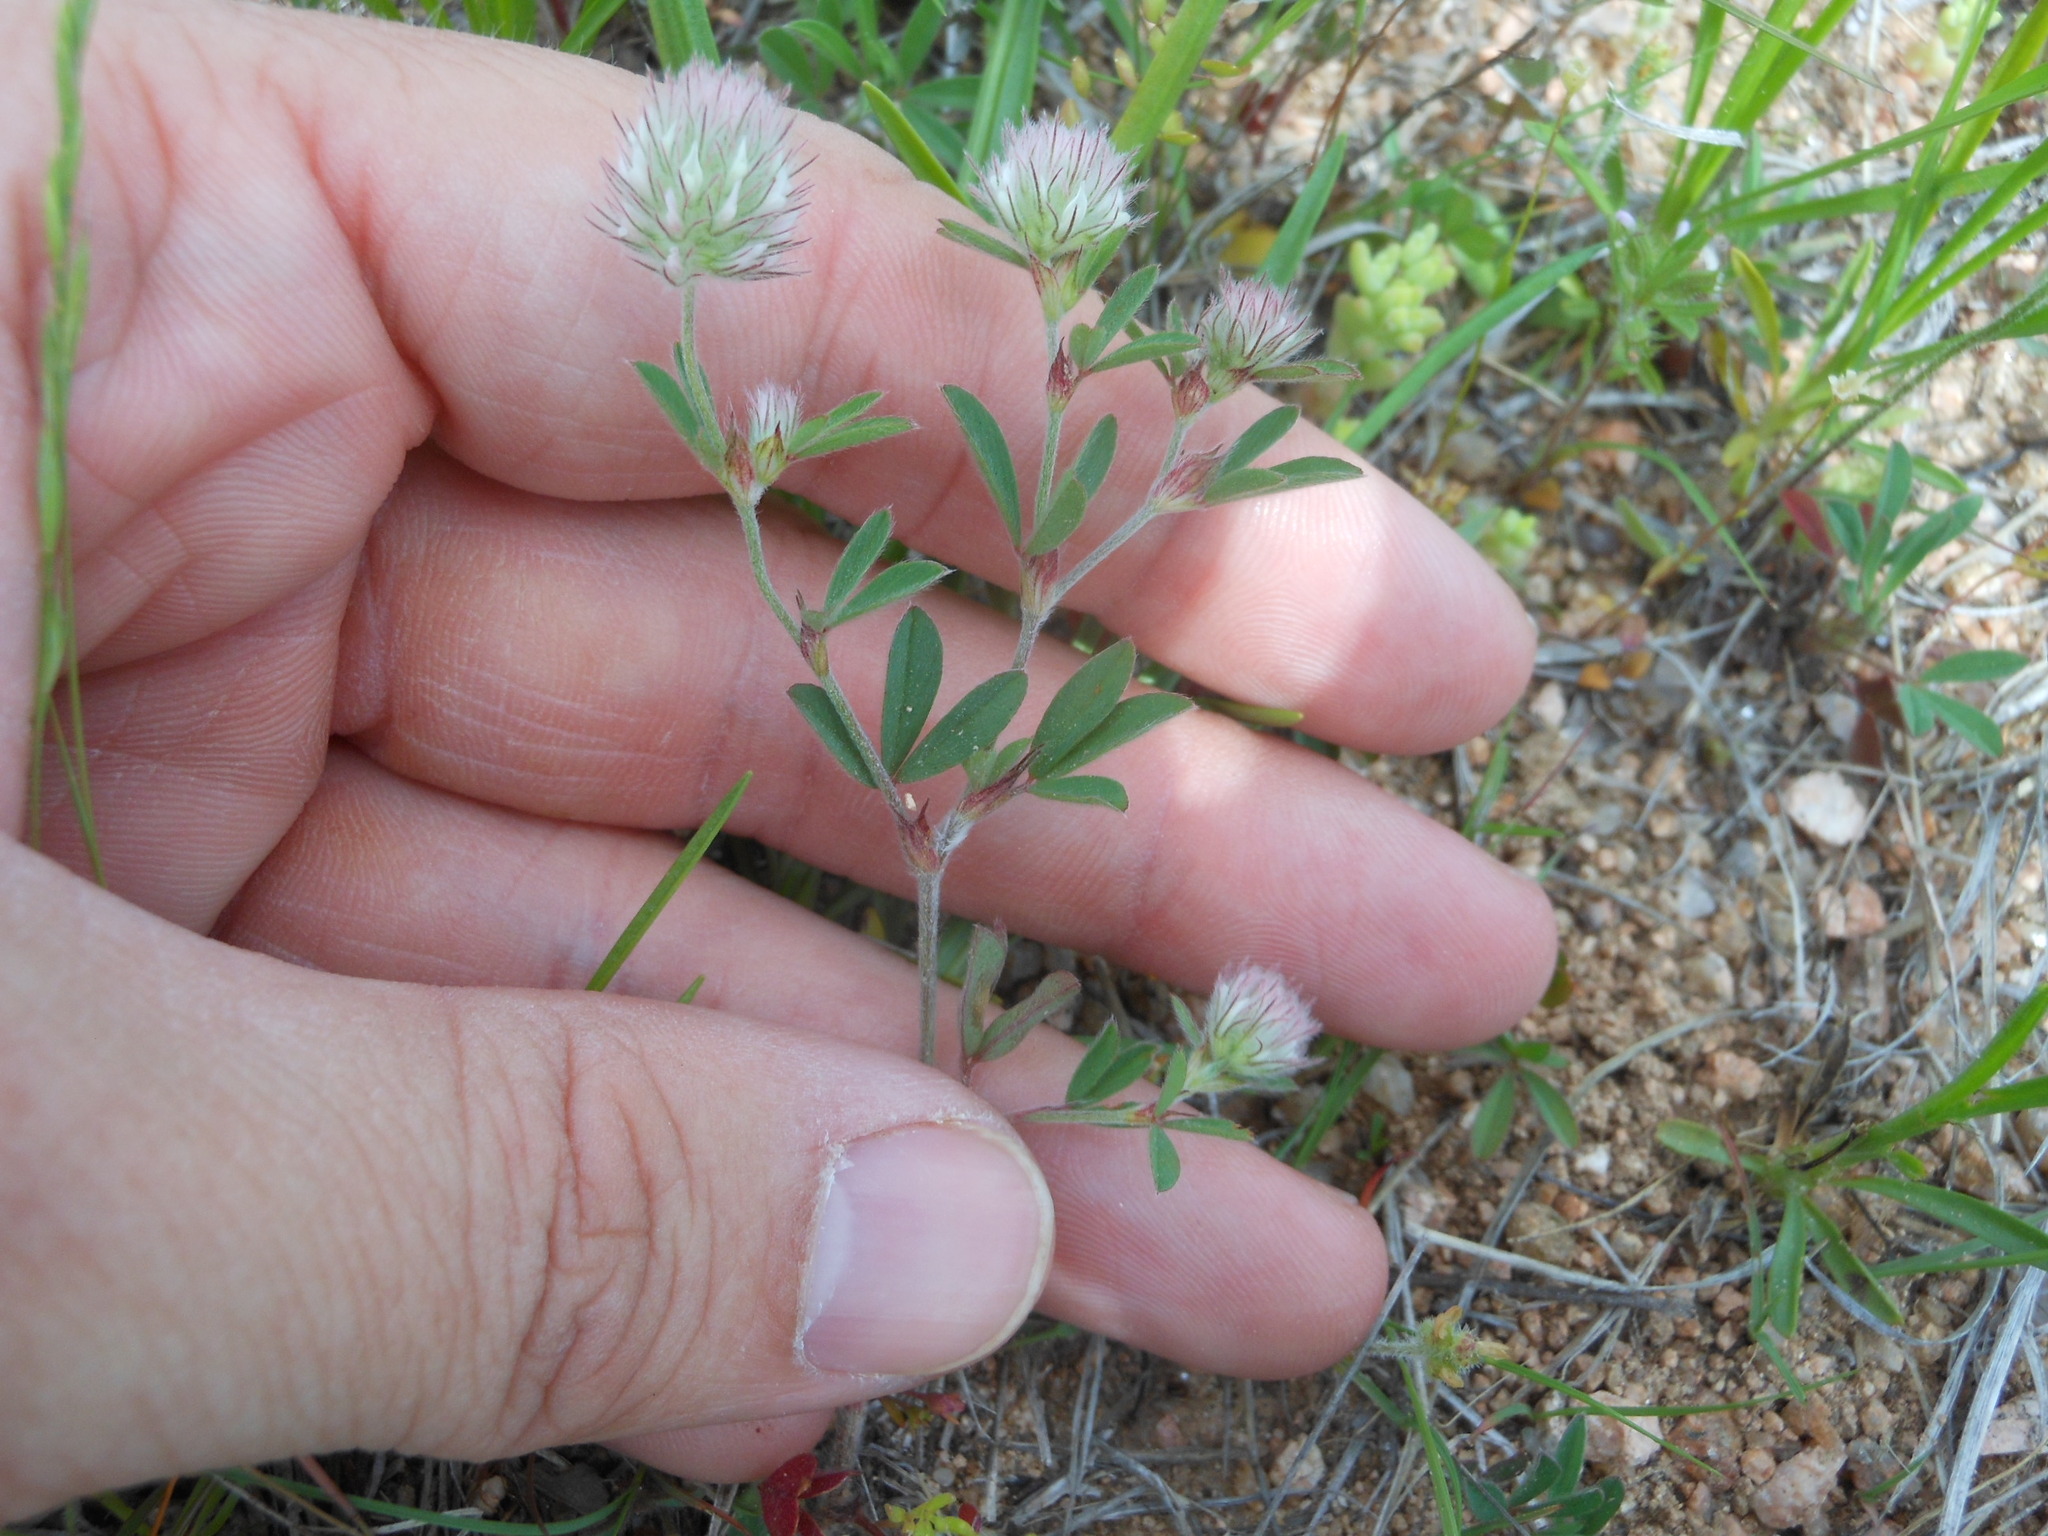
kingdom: Plantae
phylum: Tracheophyta
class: Magnoliopsida
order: Fabales
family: Fabaceae
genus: Trifolium
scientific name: Trifolium arvense
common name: Hare's-foot clover
